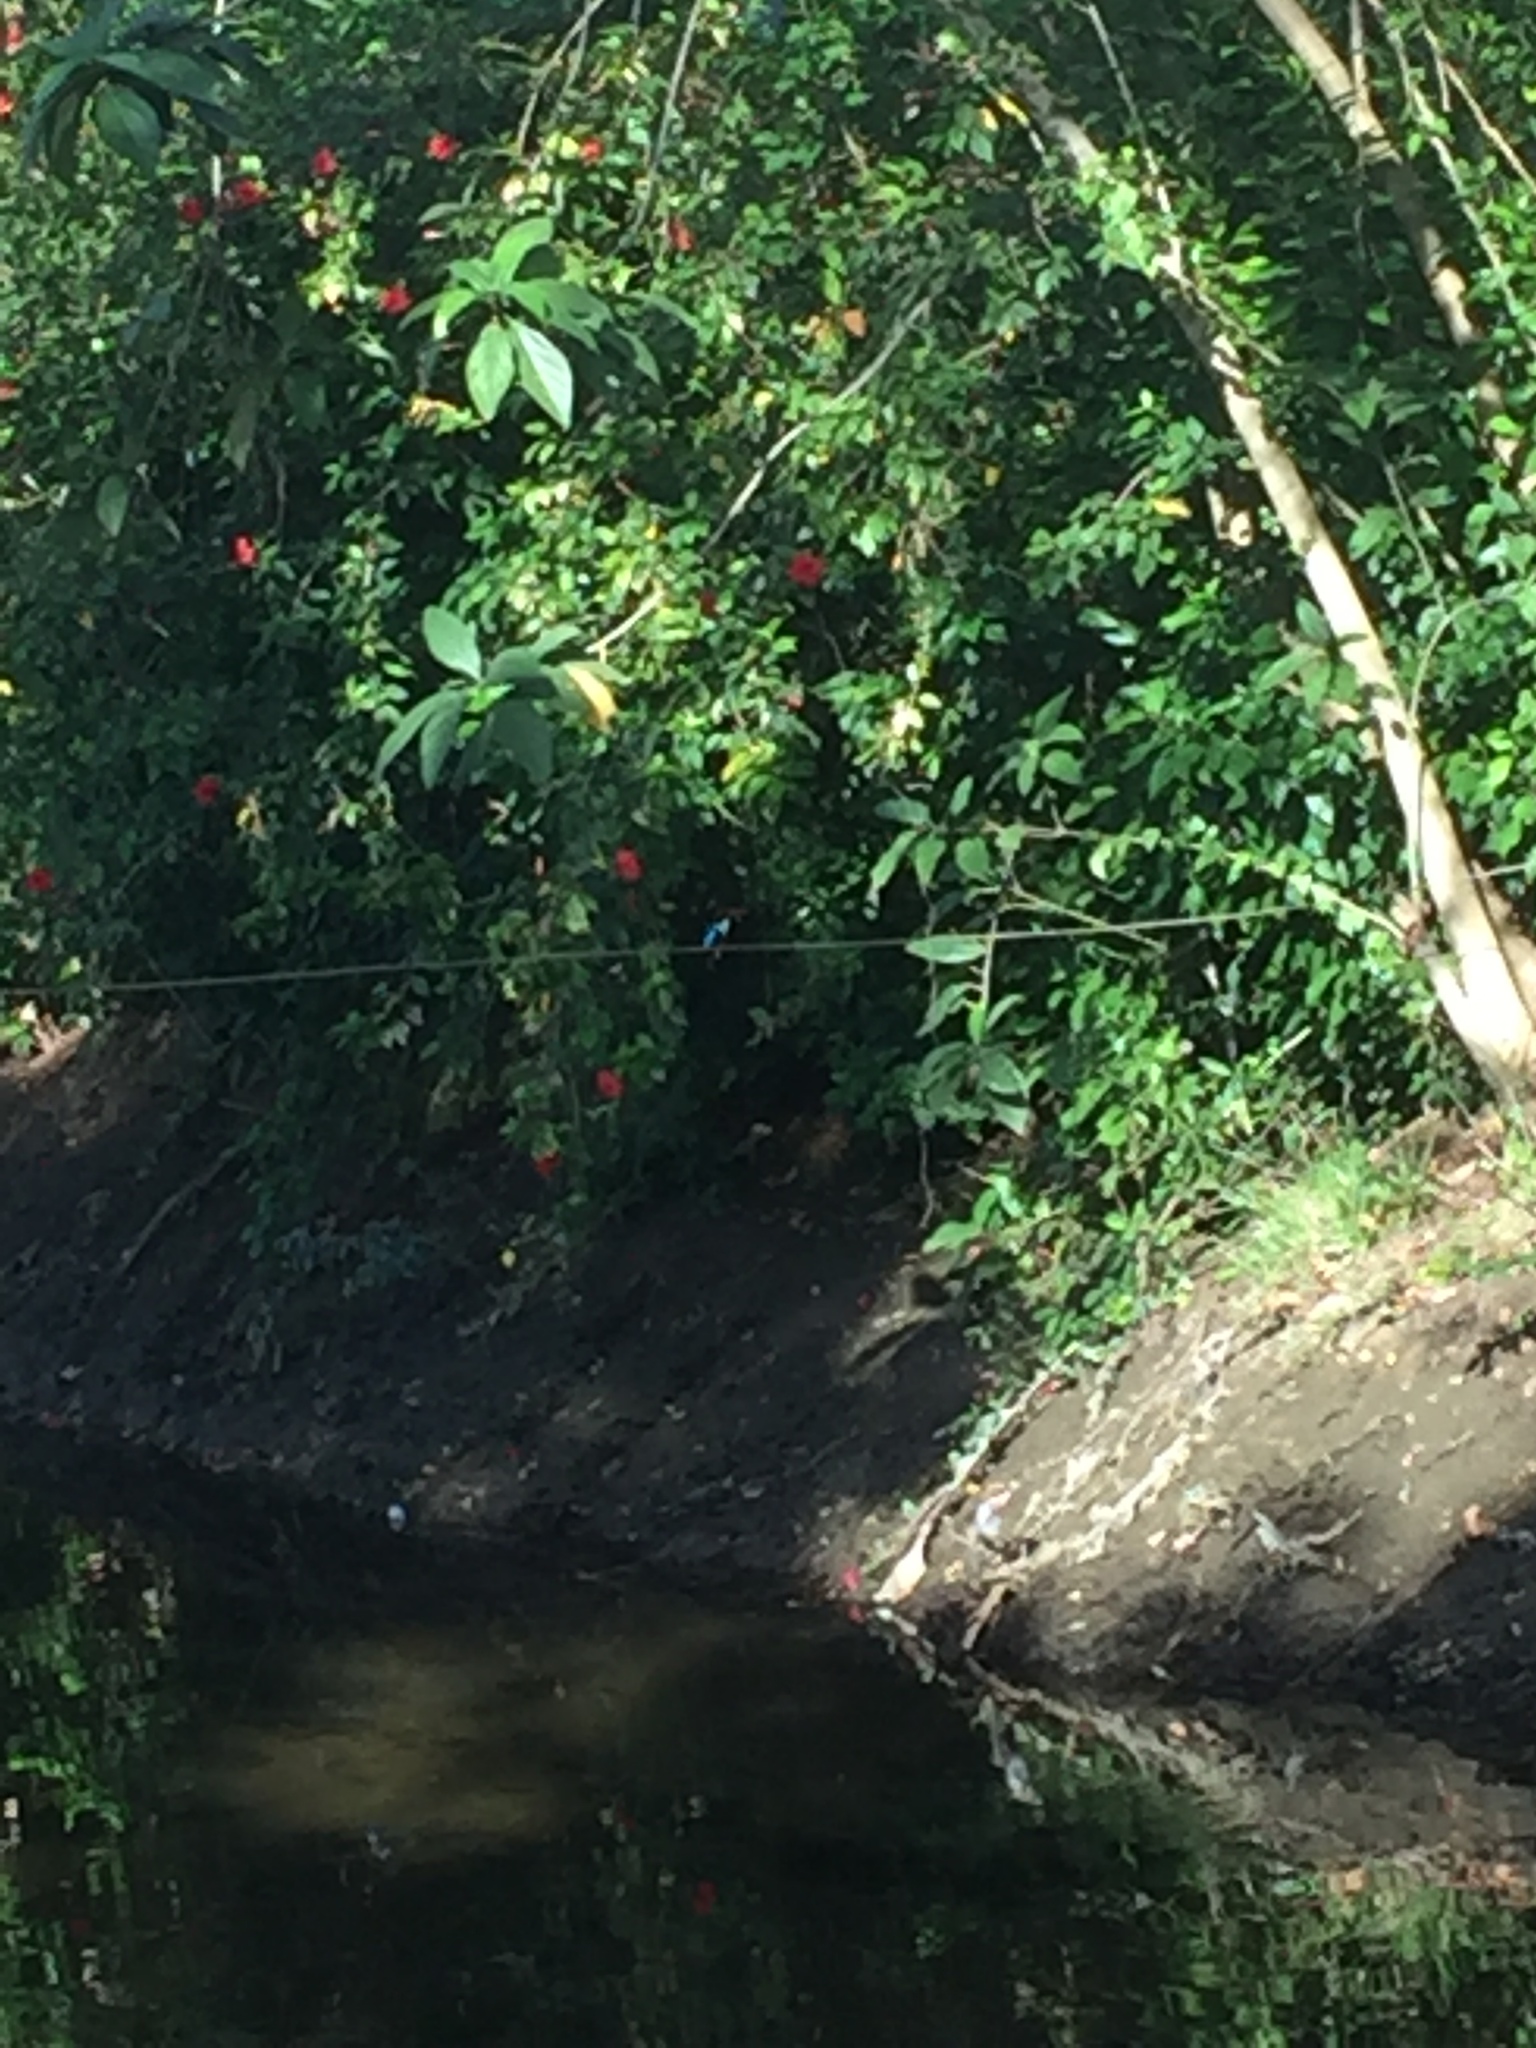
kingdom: Animalia
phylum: Chordata
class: Aves
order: Coraciiformes
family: Alcedinidae
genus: Halcyon
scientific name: Halcyon smyrnensis
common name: White-throated kingfisher
